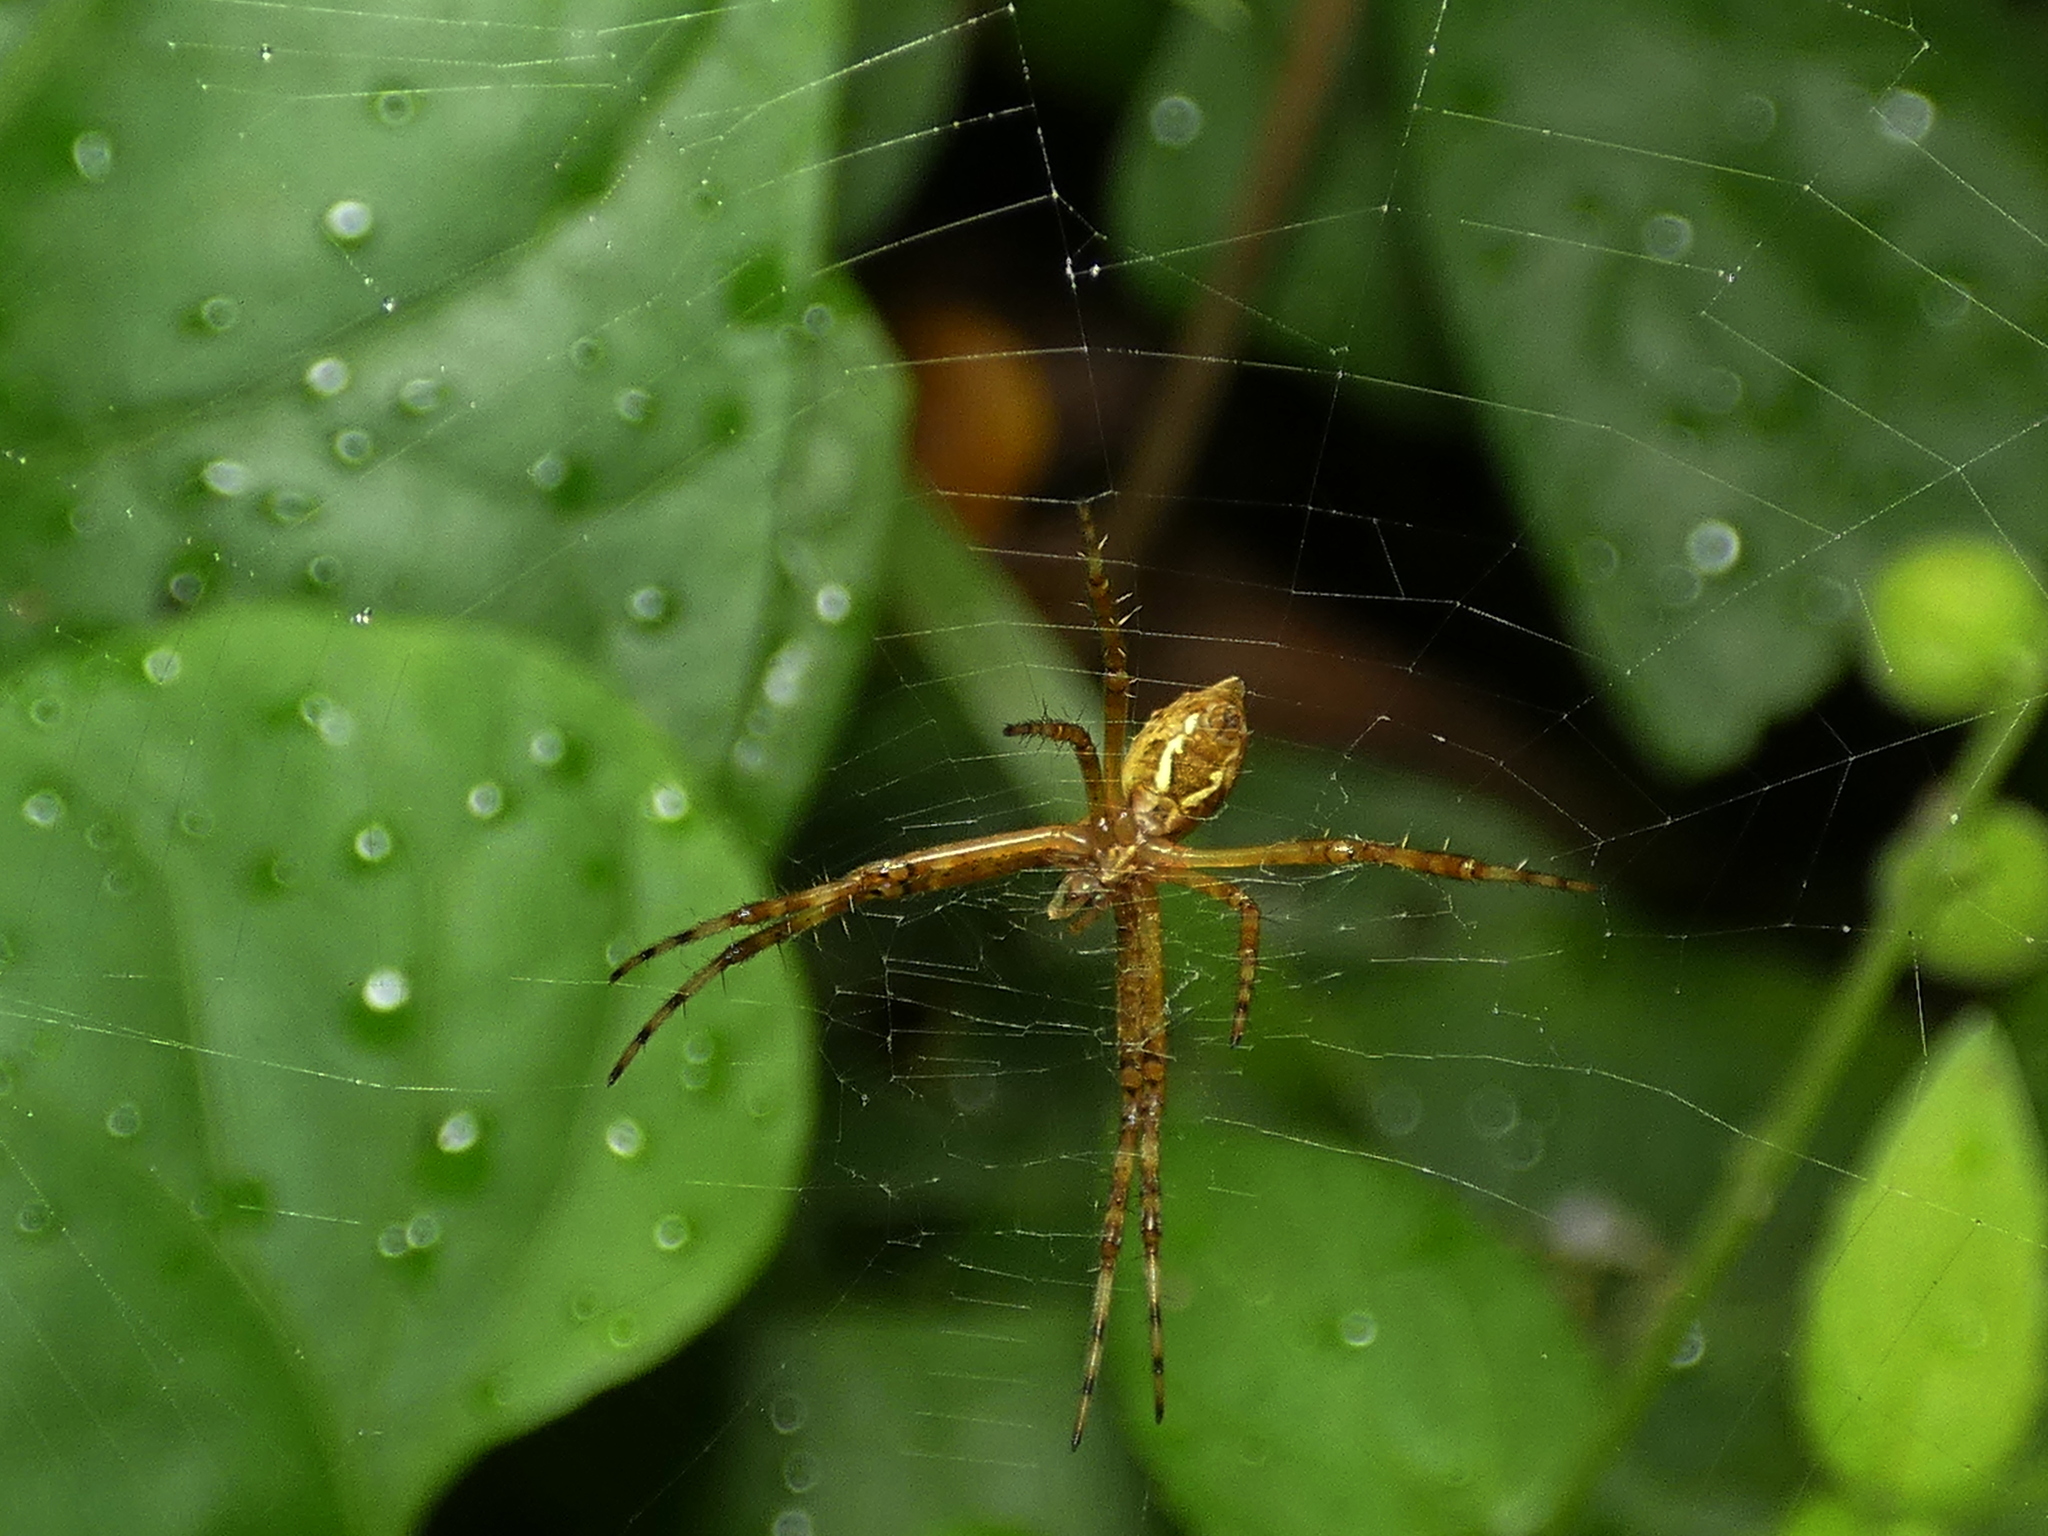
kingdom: Animalia
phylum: Arthropoda
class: Arachnida
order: Araneae
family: Araneidae
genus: Argiope
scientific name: Argiope argentata
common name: Orb weavers
